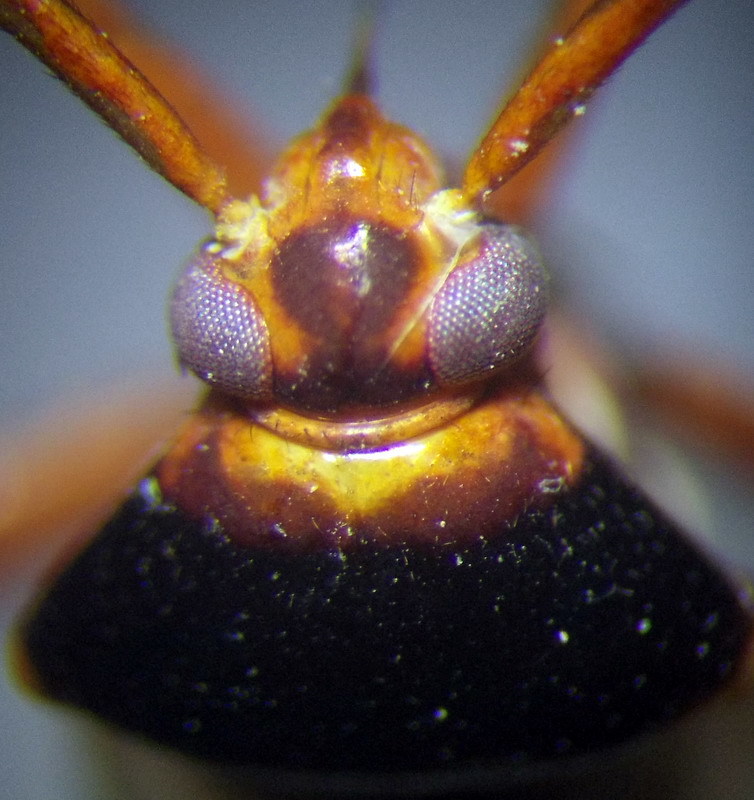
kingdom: Animalia
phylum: Arthropoda
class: Insecta
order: Hemiptera
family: Miridae
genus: Adelphocoris
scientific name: Adelphocoris reicheli
